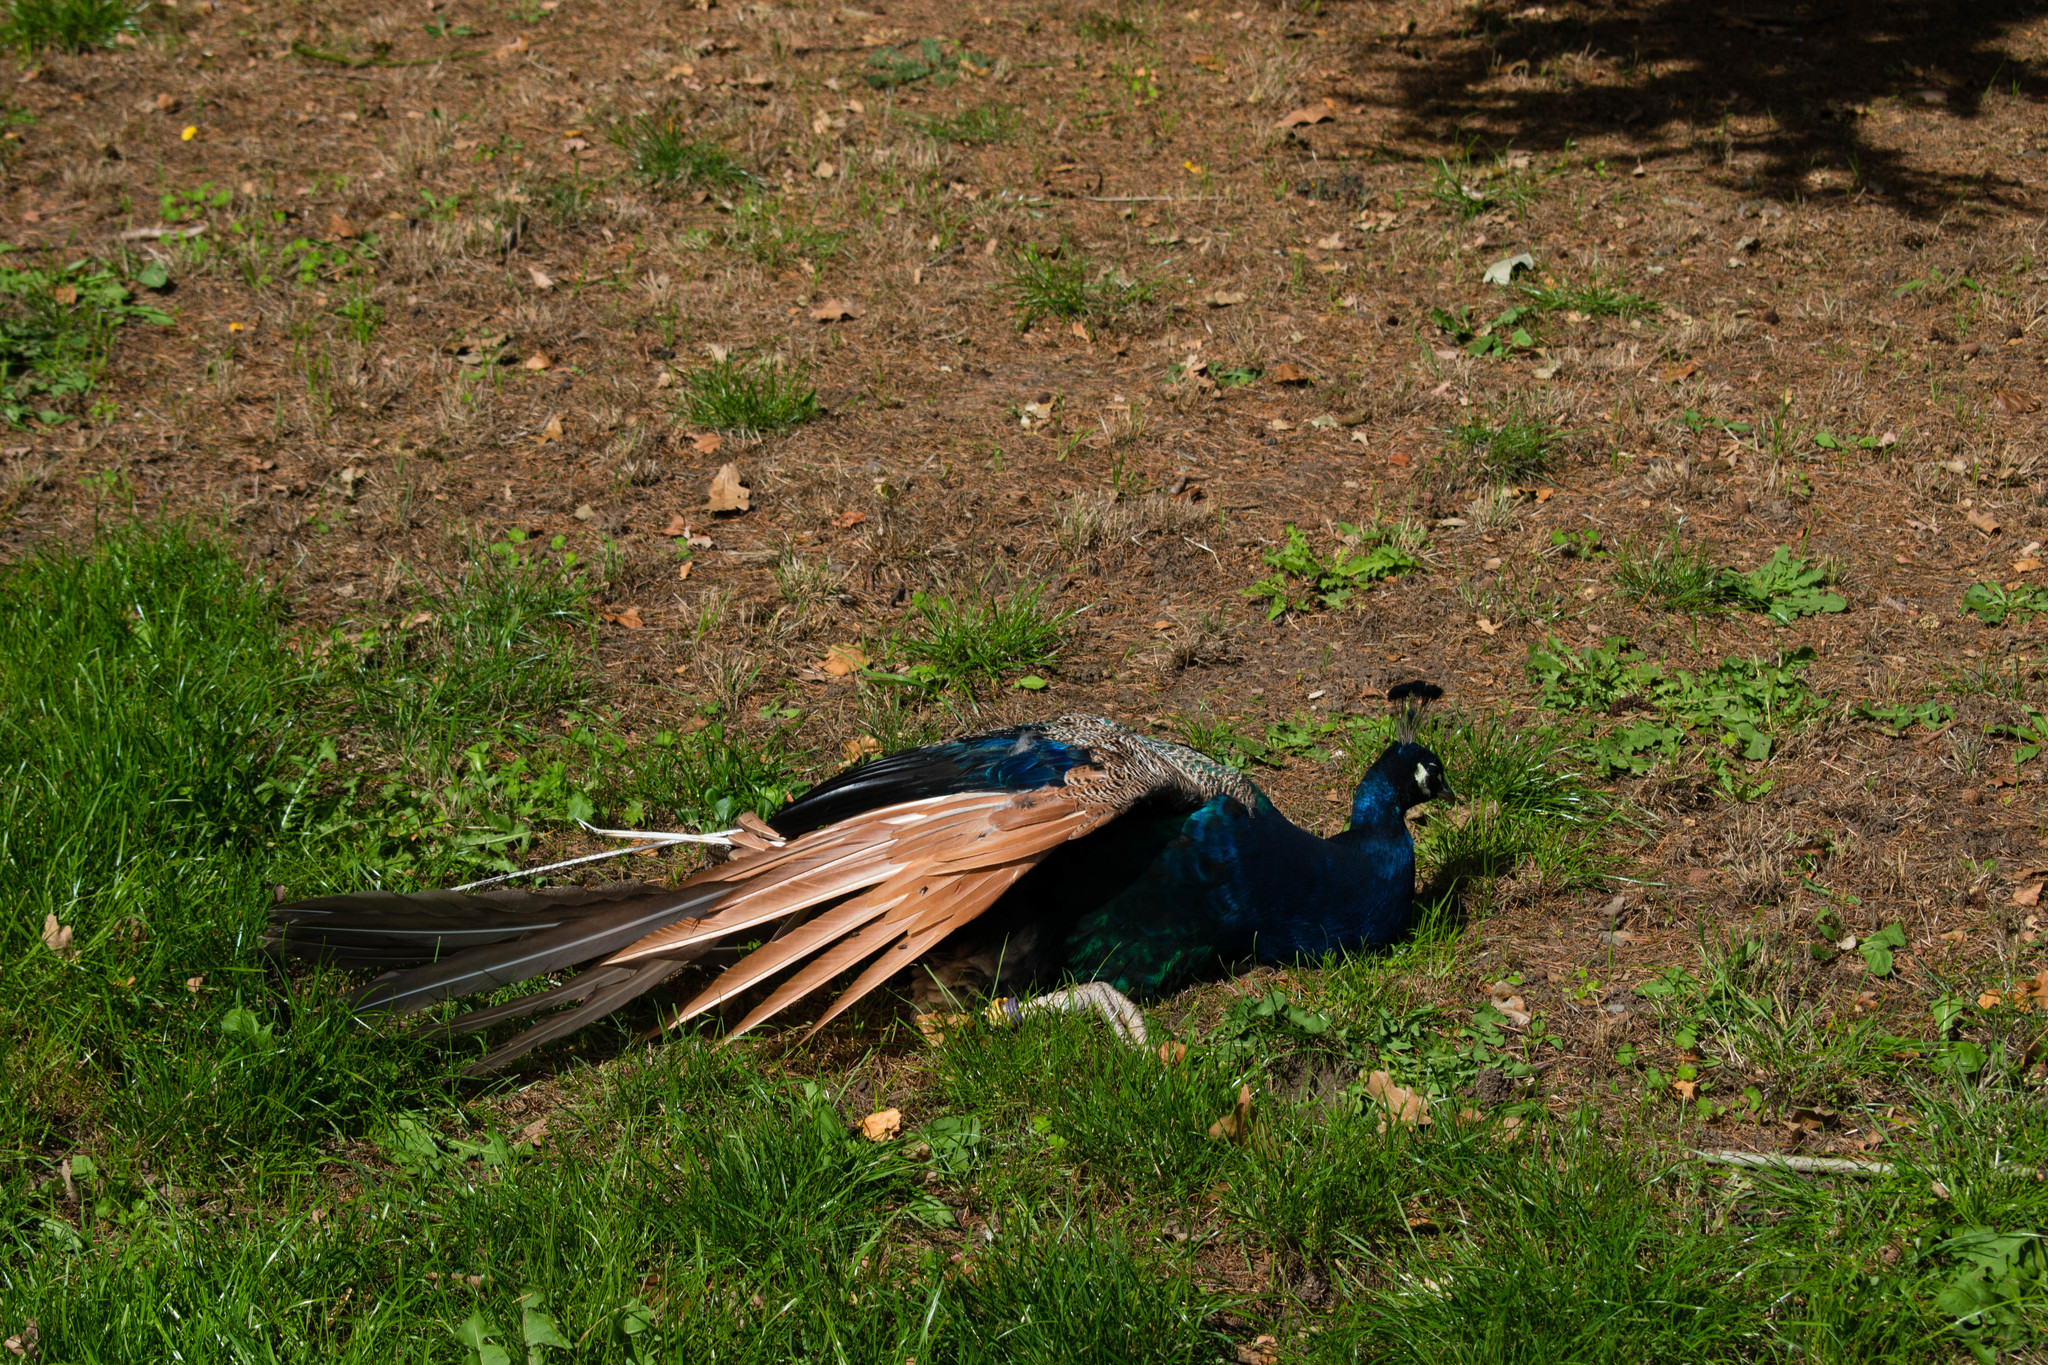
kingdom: Animalia
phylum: Chordata
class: Aves
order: Galliformes
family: Phasianidae
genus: Pavo
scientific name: Pavo cristatus
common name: Indian peafowl
